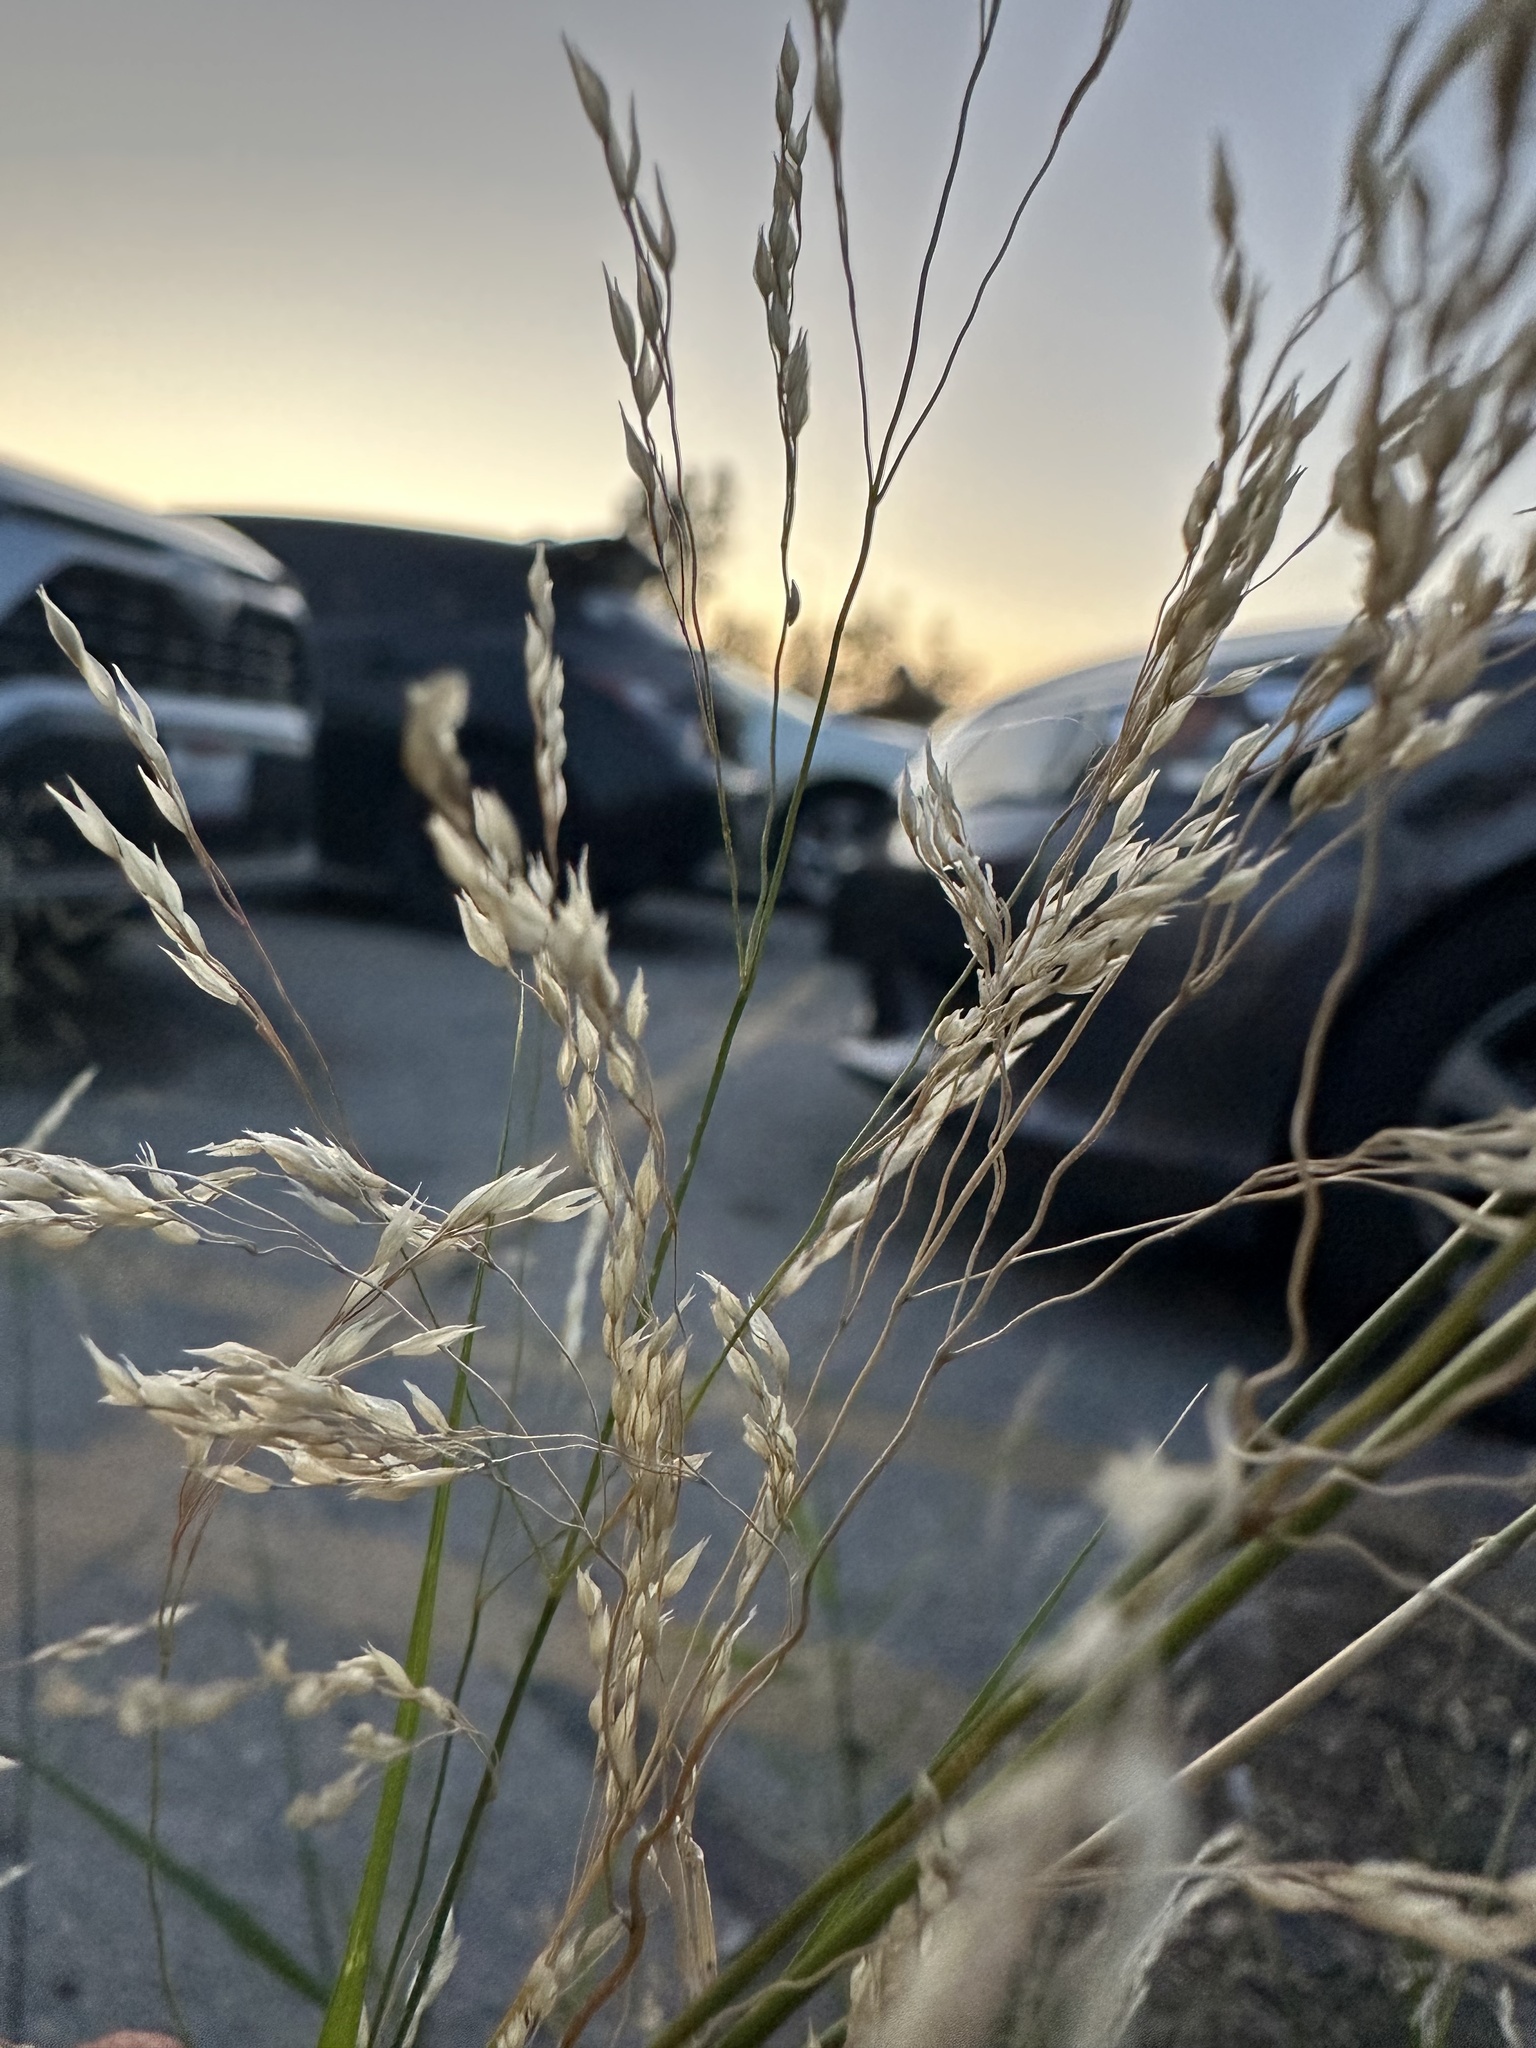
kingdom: Plantae
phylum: Tracheophyta
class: Liliopsida
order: Poales
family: Poaceae
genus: Oloptum
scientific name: Oloptum miliaceum
